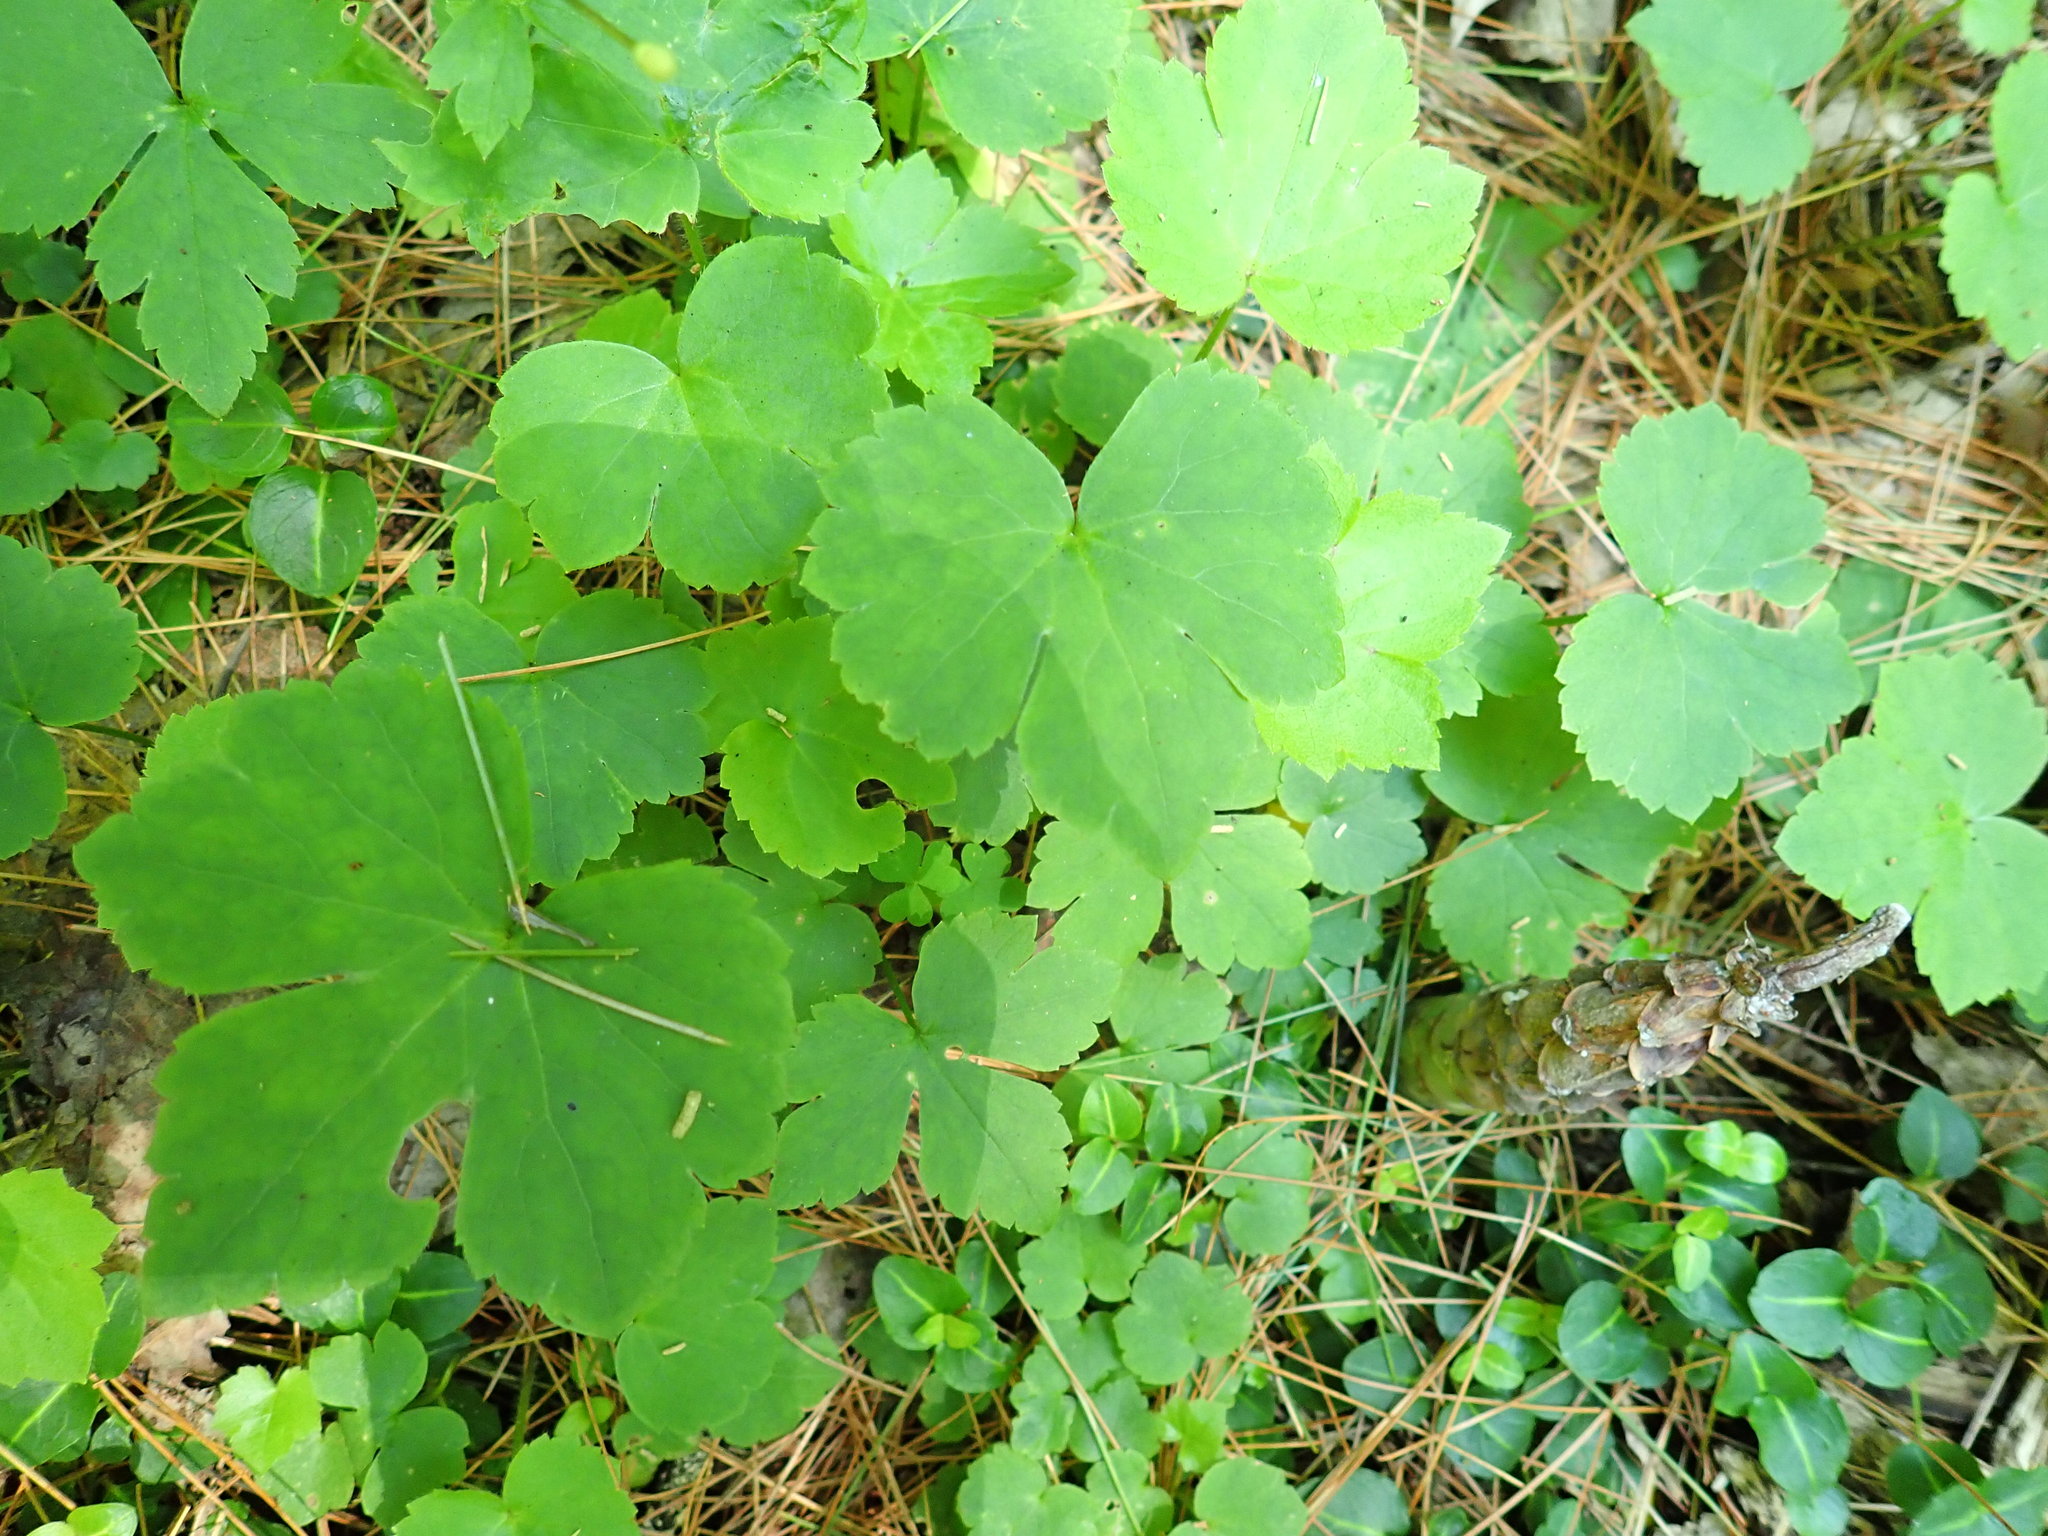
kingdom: Plantae
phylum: Tracheophyta
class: Magnoliopsida
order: Ranunculales
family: Ranunculaceae
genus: Ranunculus
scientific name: Ranunculus recurvatus
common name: Blisterwort
